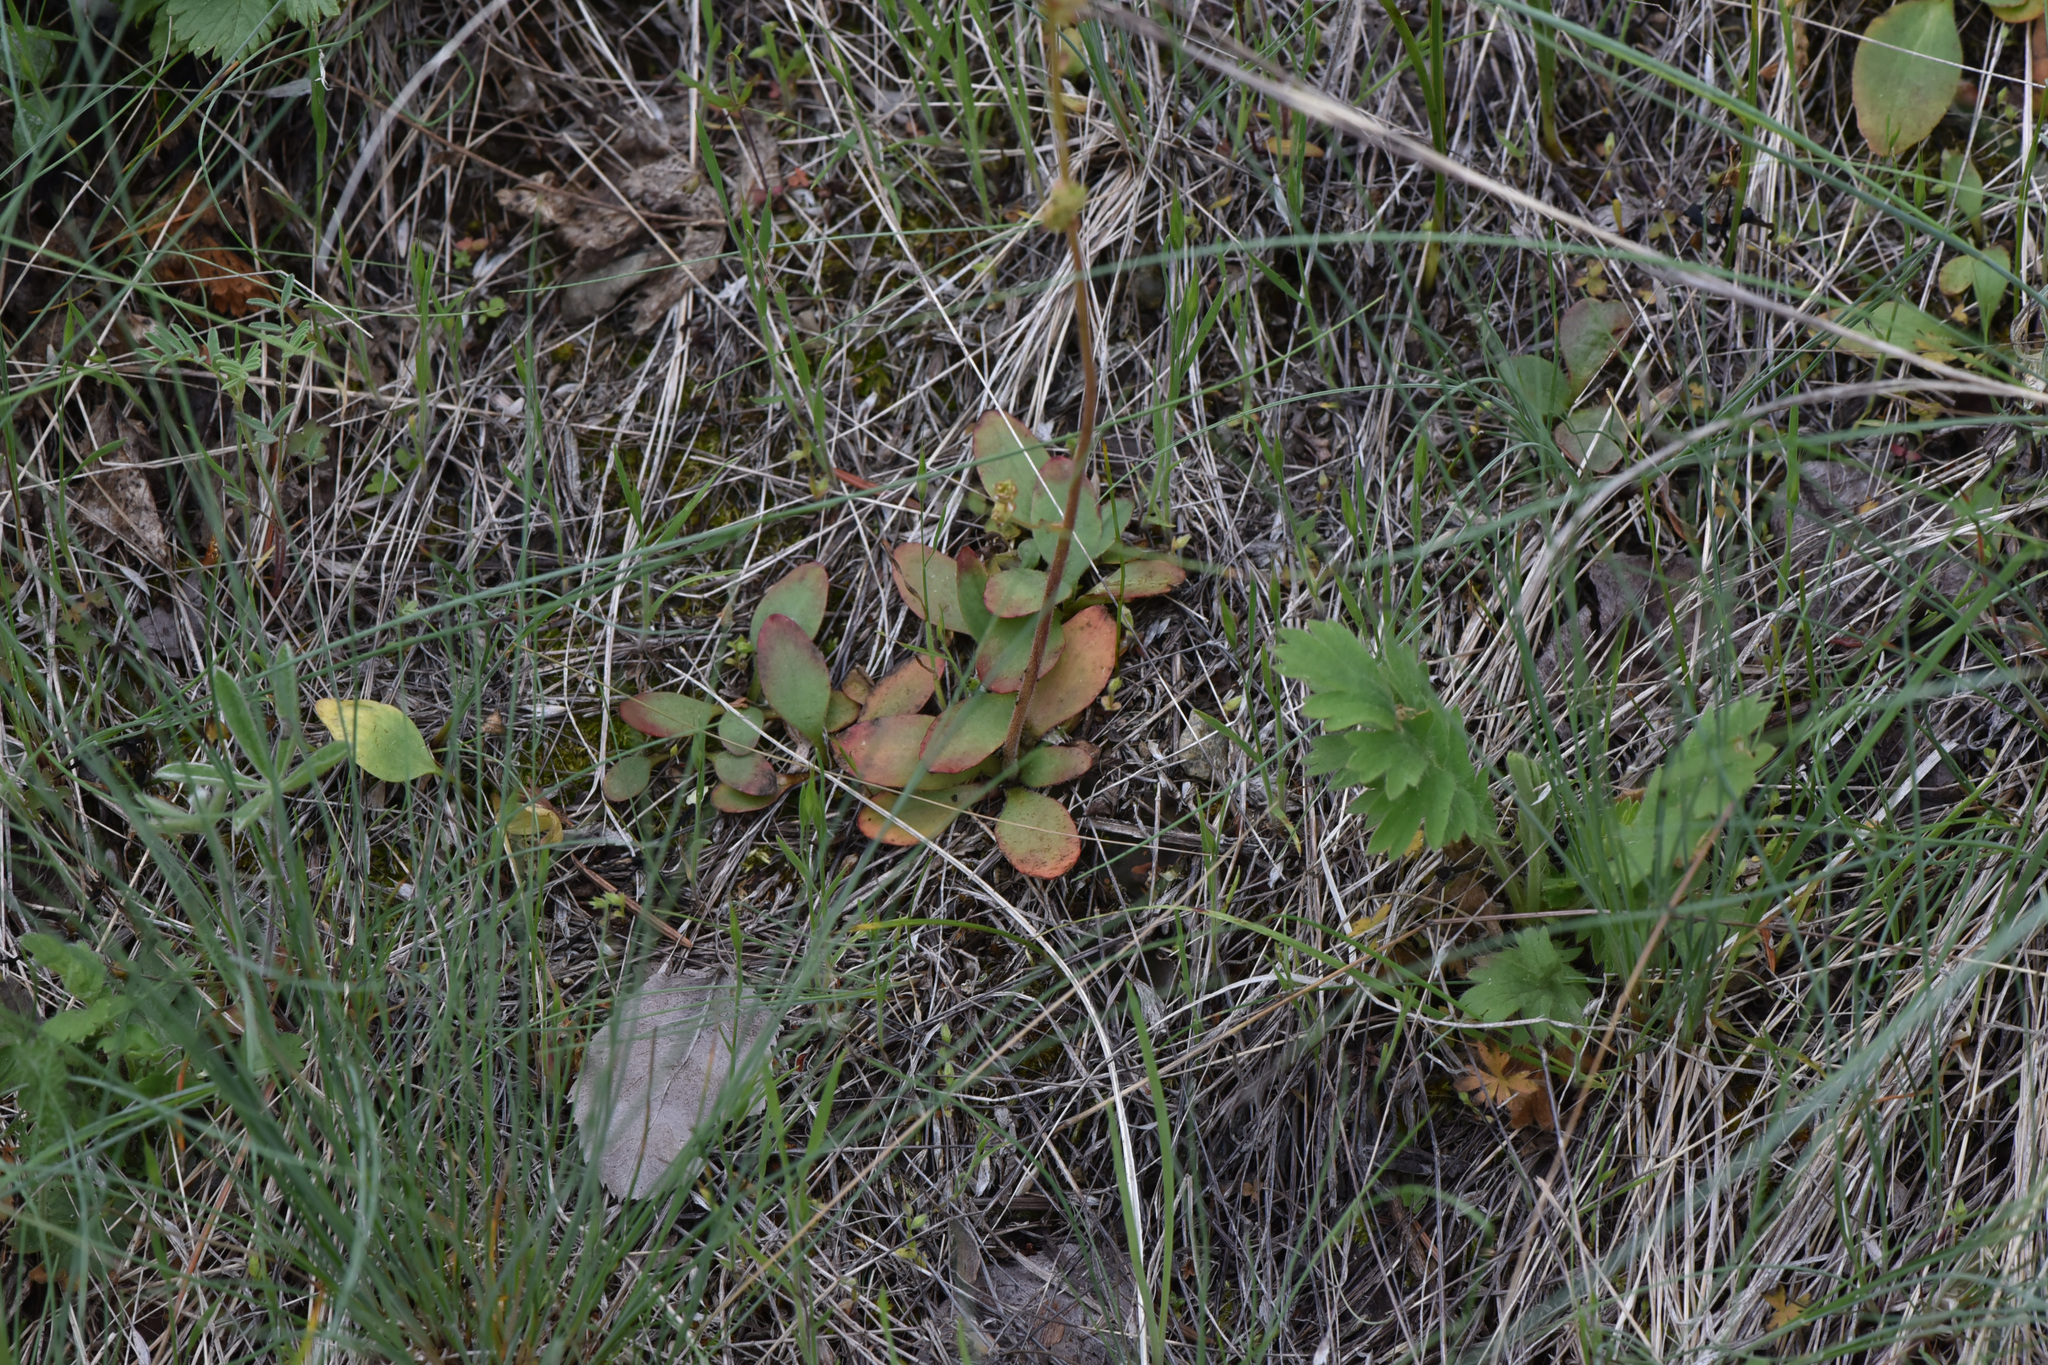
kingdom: Plantae
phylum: Tracheophyta
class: Magnoliopsida
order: Saxifragales
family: Saxifragaceae
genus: Micranthes
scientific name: Micranthes nidifica
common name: Peak saxifrage
